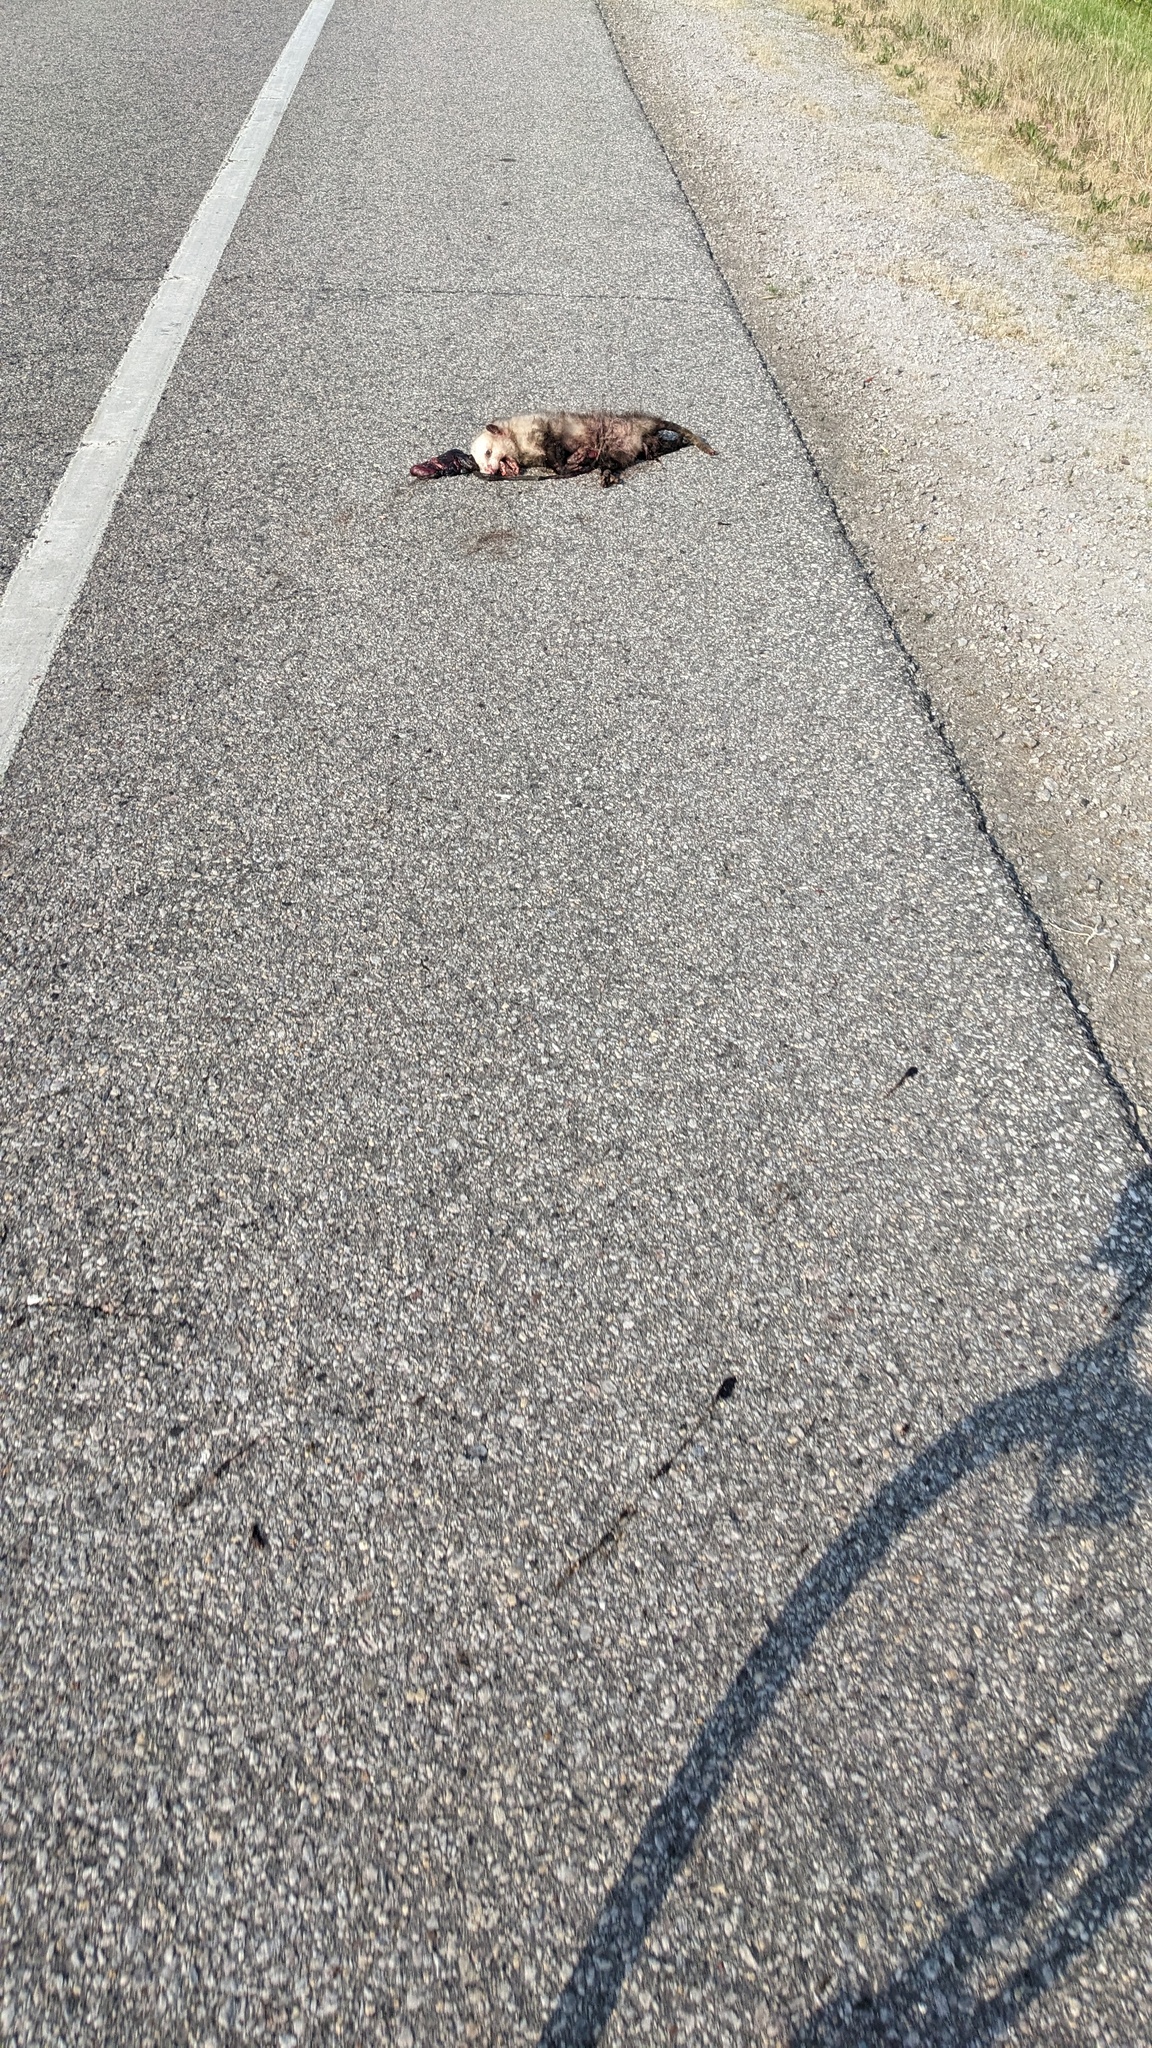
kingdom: Animalia
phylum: Chordata
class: Mammalia
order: Didelphimorphia
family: Didelphidae
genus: Didelphis
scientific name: Didelphis virginiana
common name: Virginia opossum
